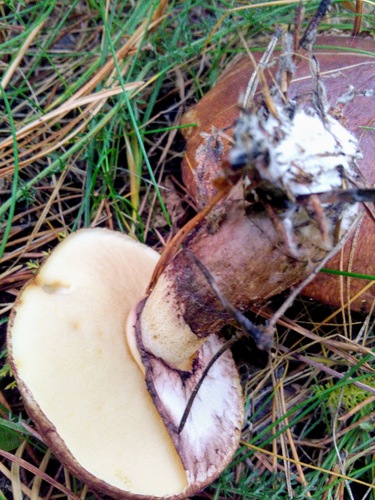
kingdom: Fungi
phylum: Basidiomycota
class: Agaricomycetes
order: Boletales
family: Suillaceae
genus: Suillus
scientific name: Suillus luteus
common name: Slippery jack
